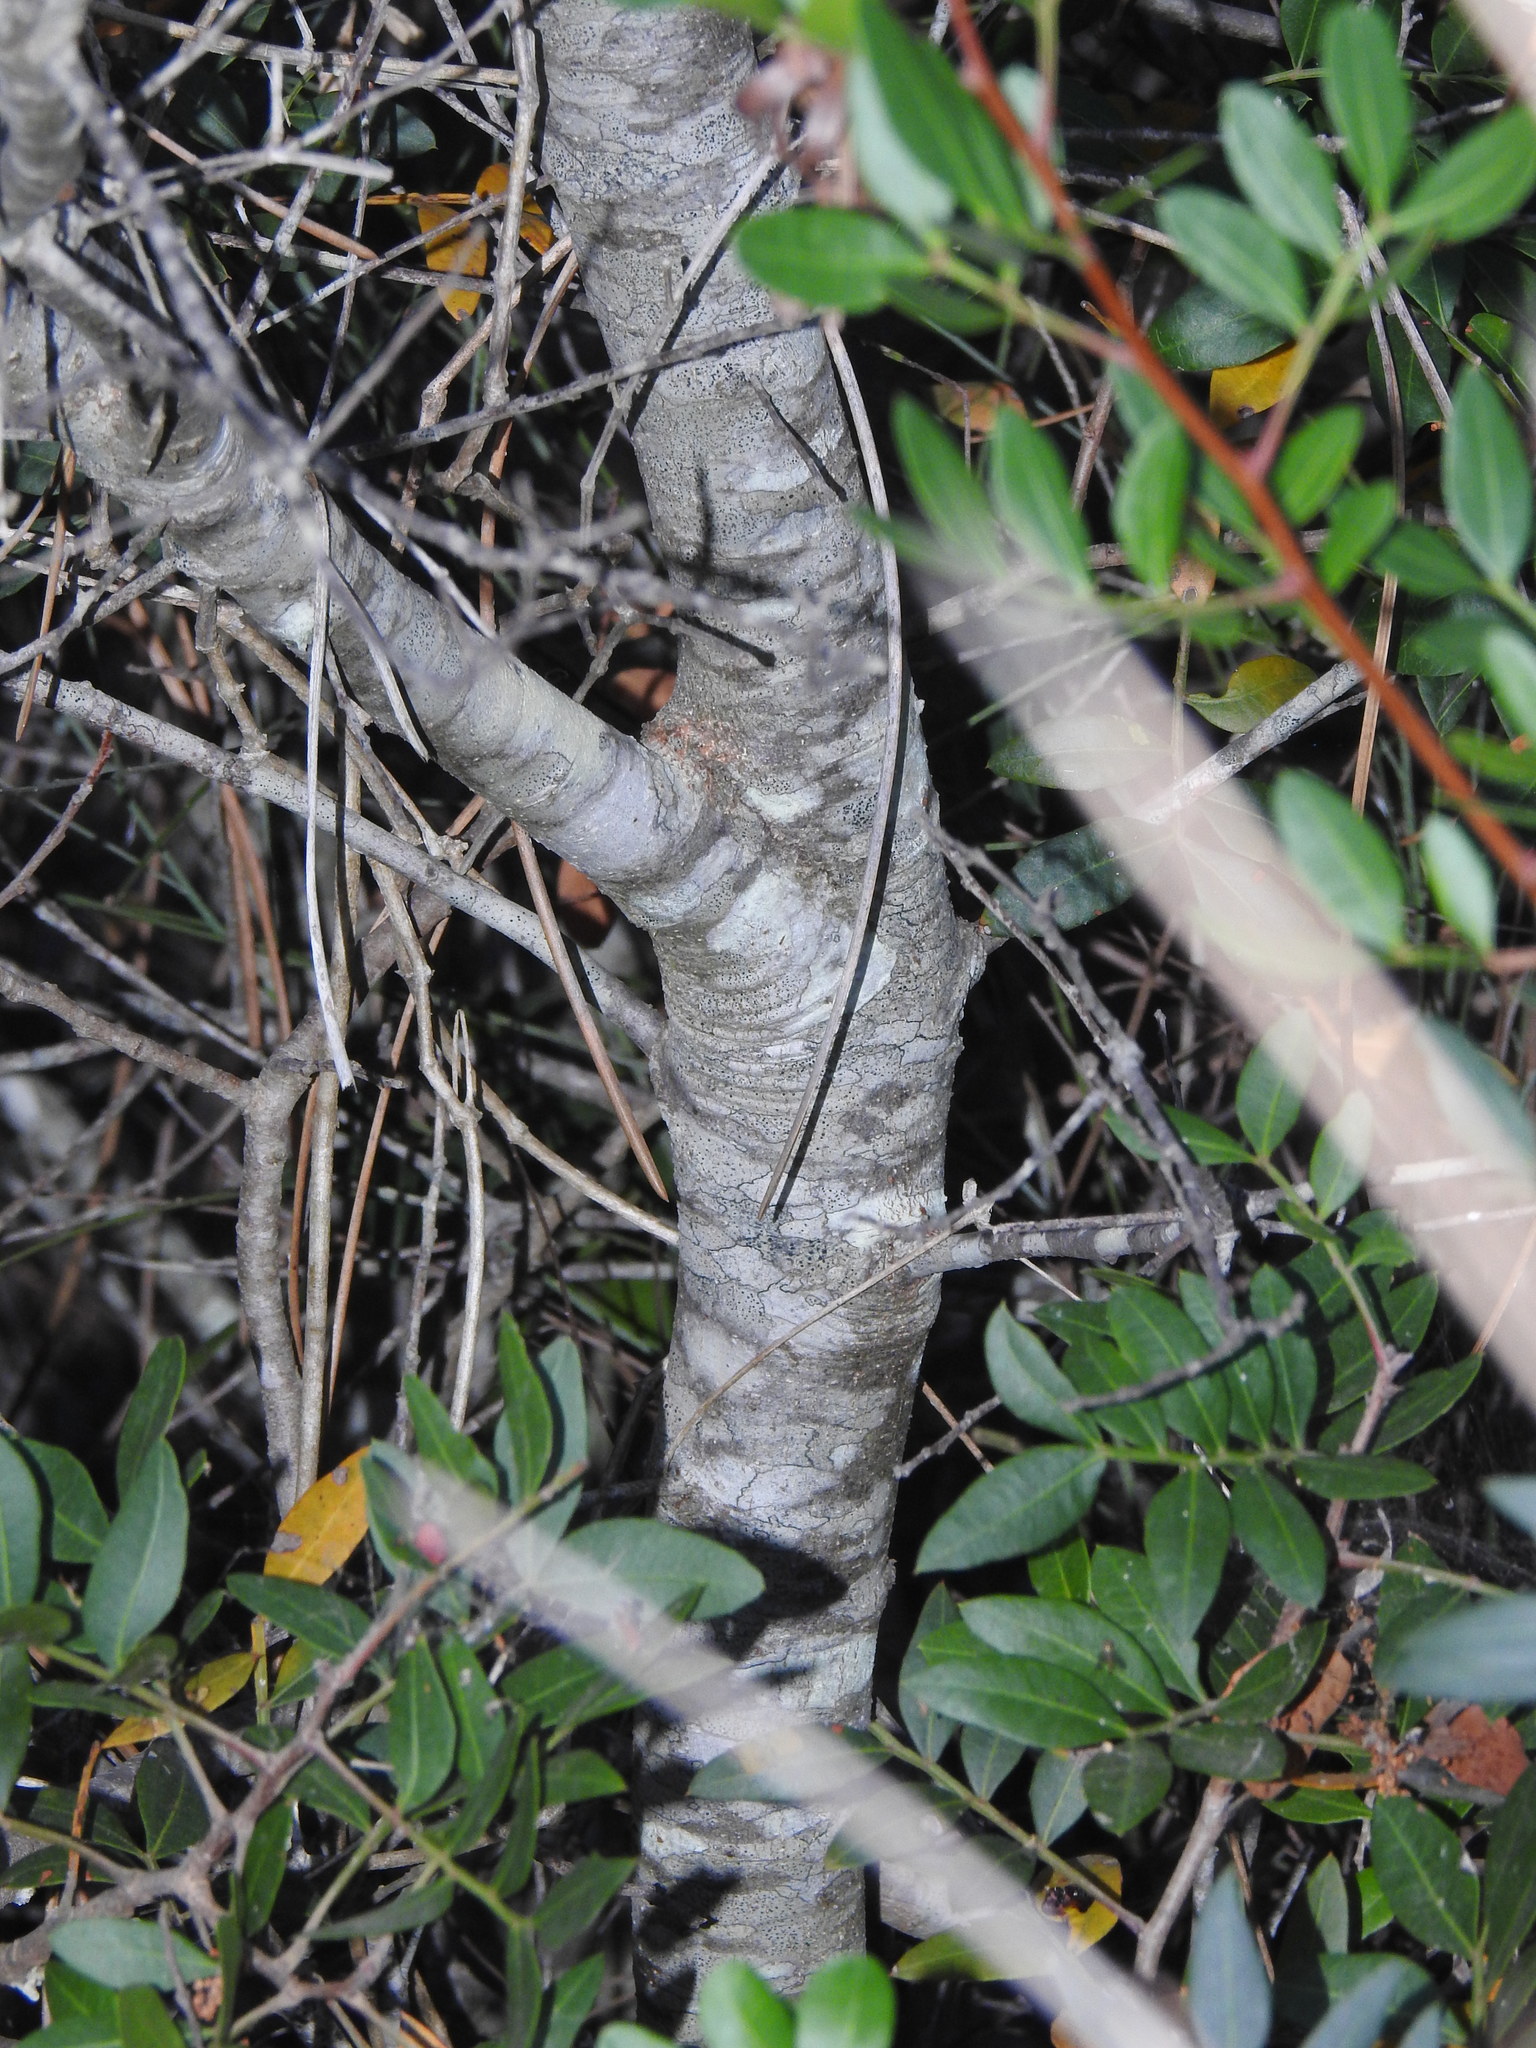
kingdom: Plantae
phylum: Tracheophyta
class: Magnoliopsida
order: Fagales
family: Fagaceae
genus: Quercus
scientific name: Quercus rotundifolia
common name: Holm oak
